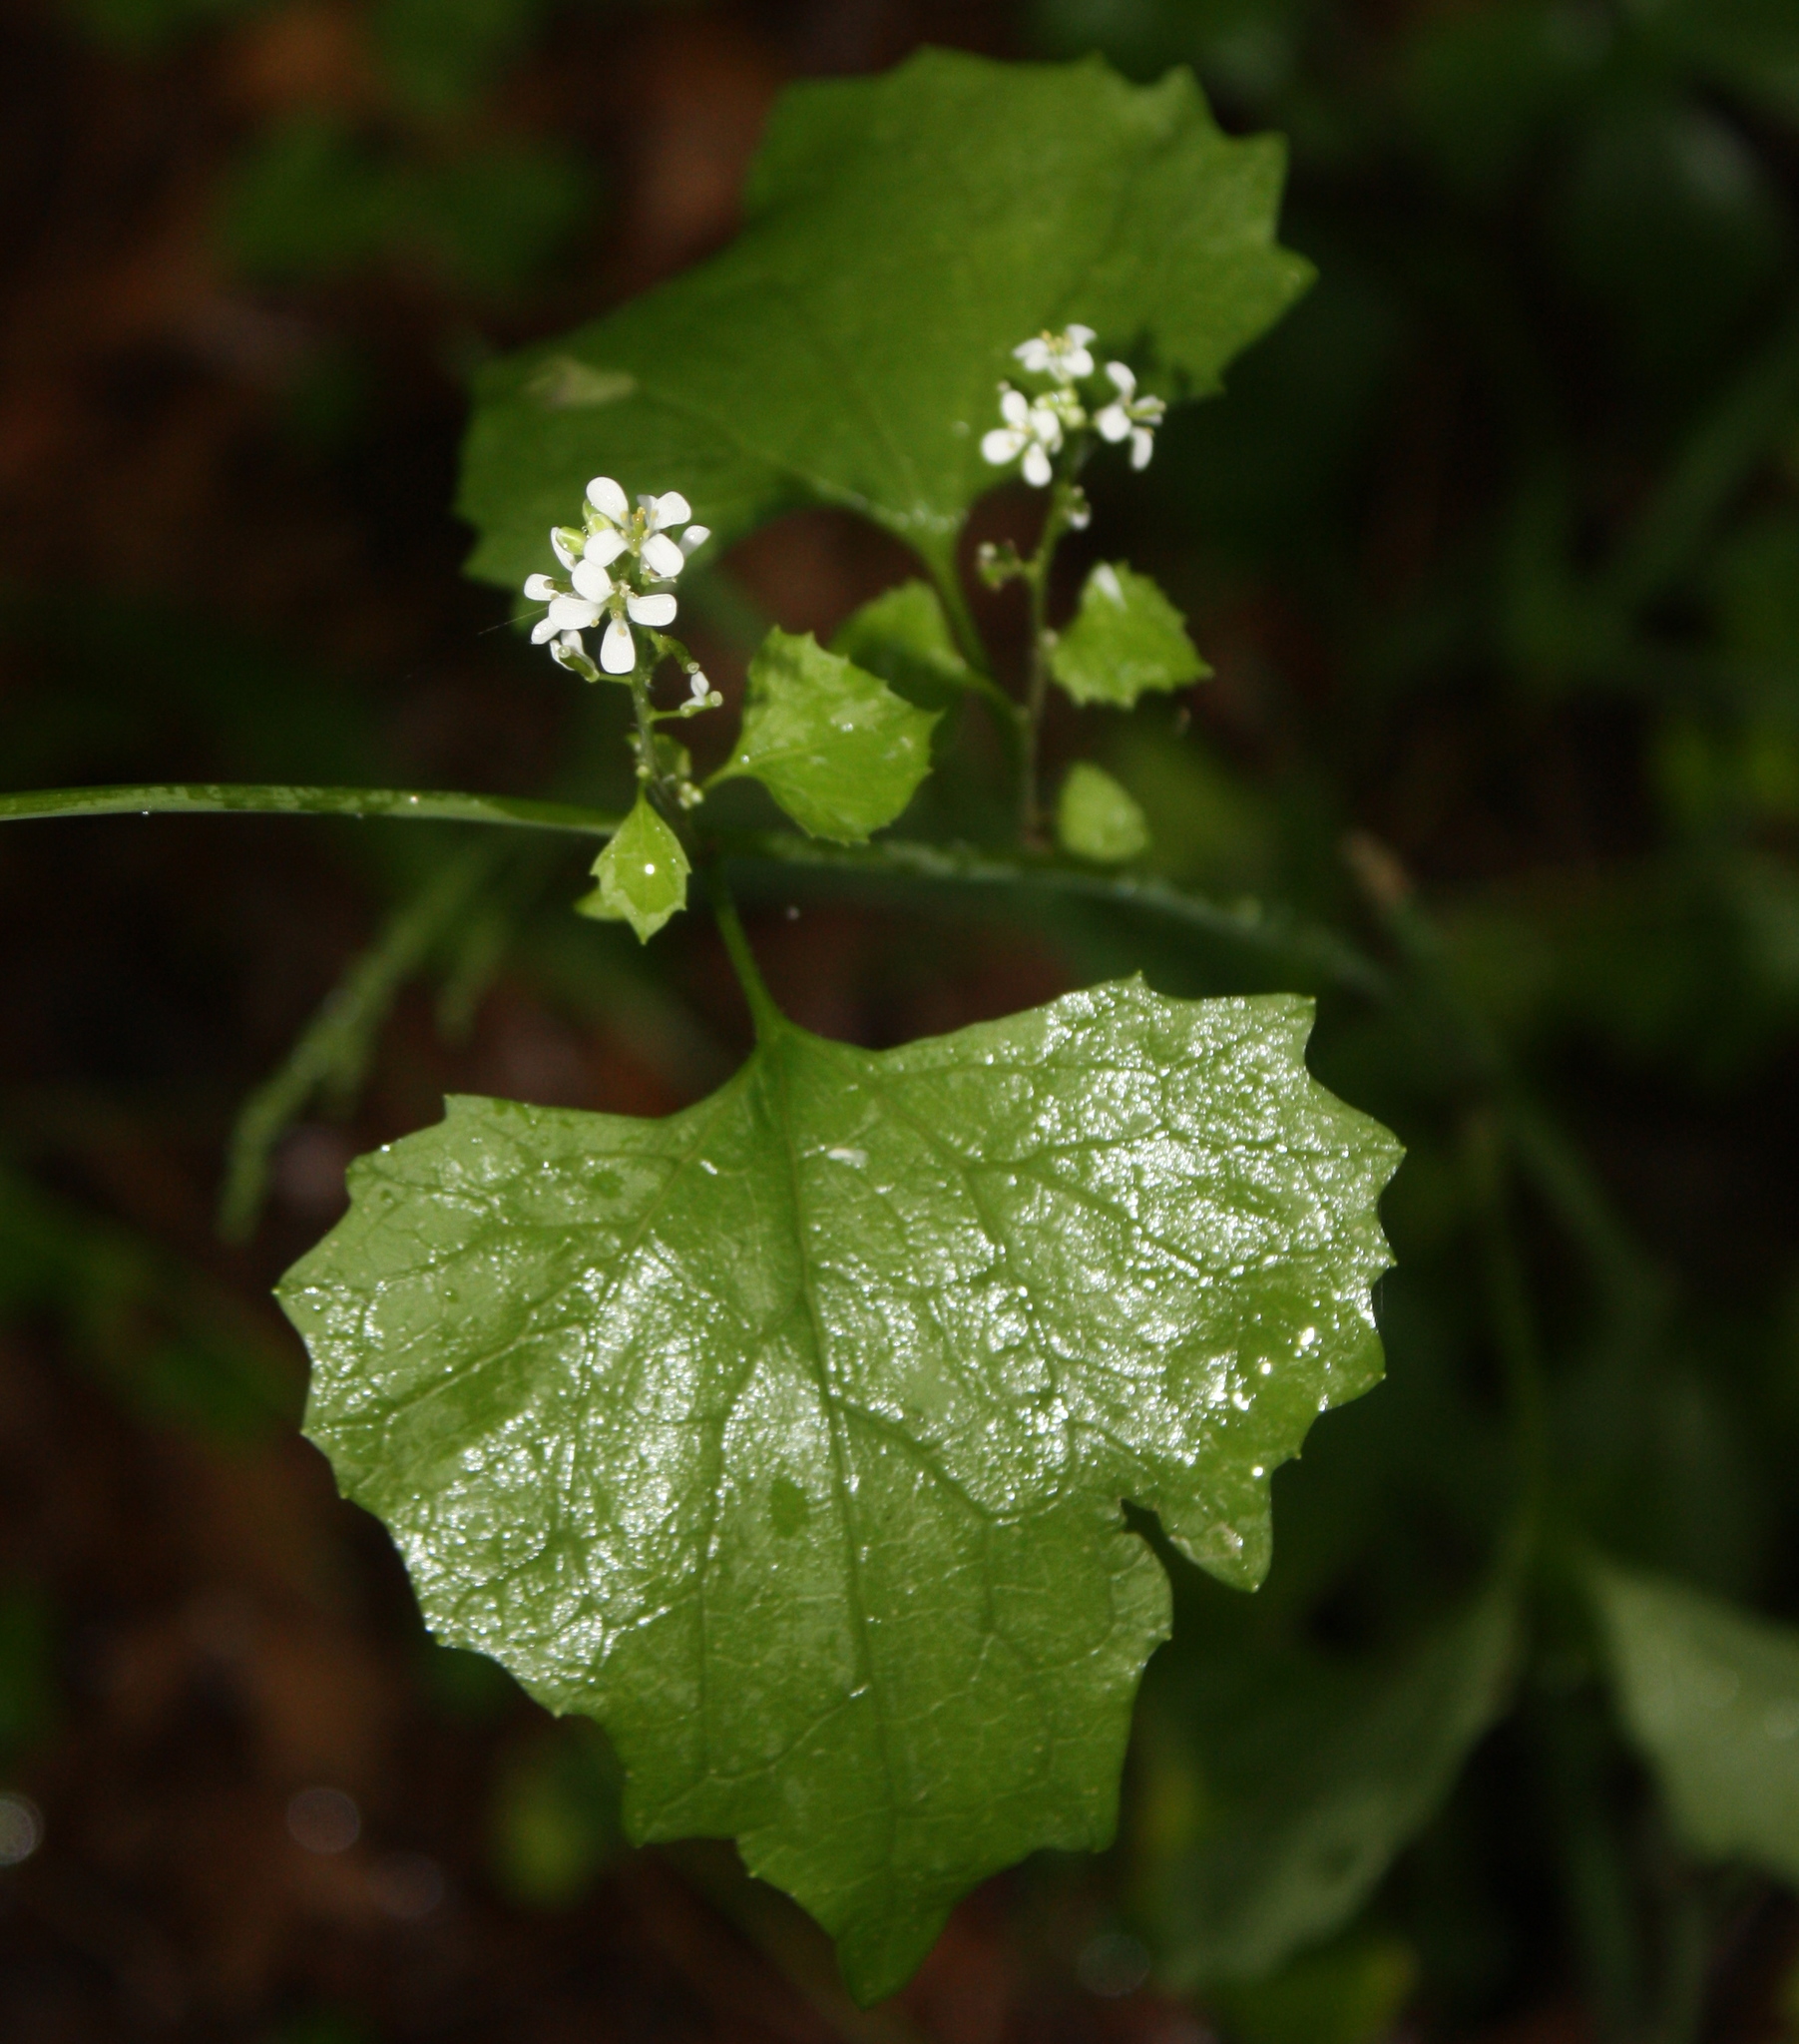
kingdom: Plantae
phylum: Tracheophyta
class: Magnoliopsida
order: Brassicales
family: Brassicaceae
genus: Alliaria
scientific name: Alliaria petiolata
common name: Garlic mustard
